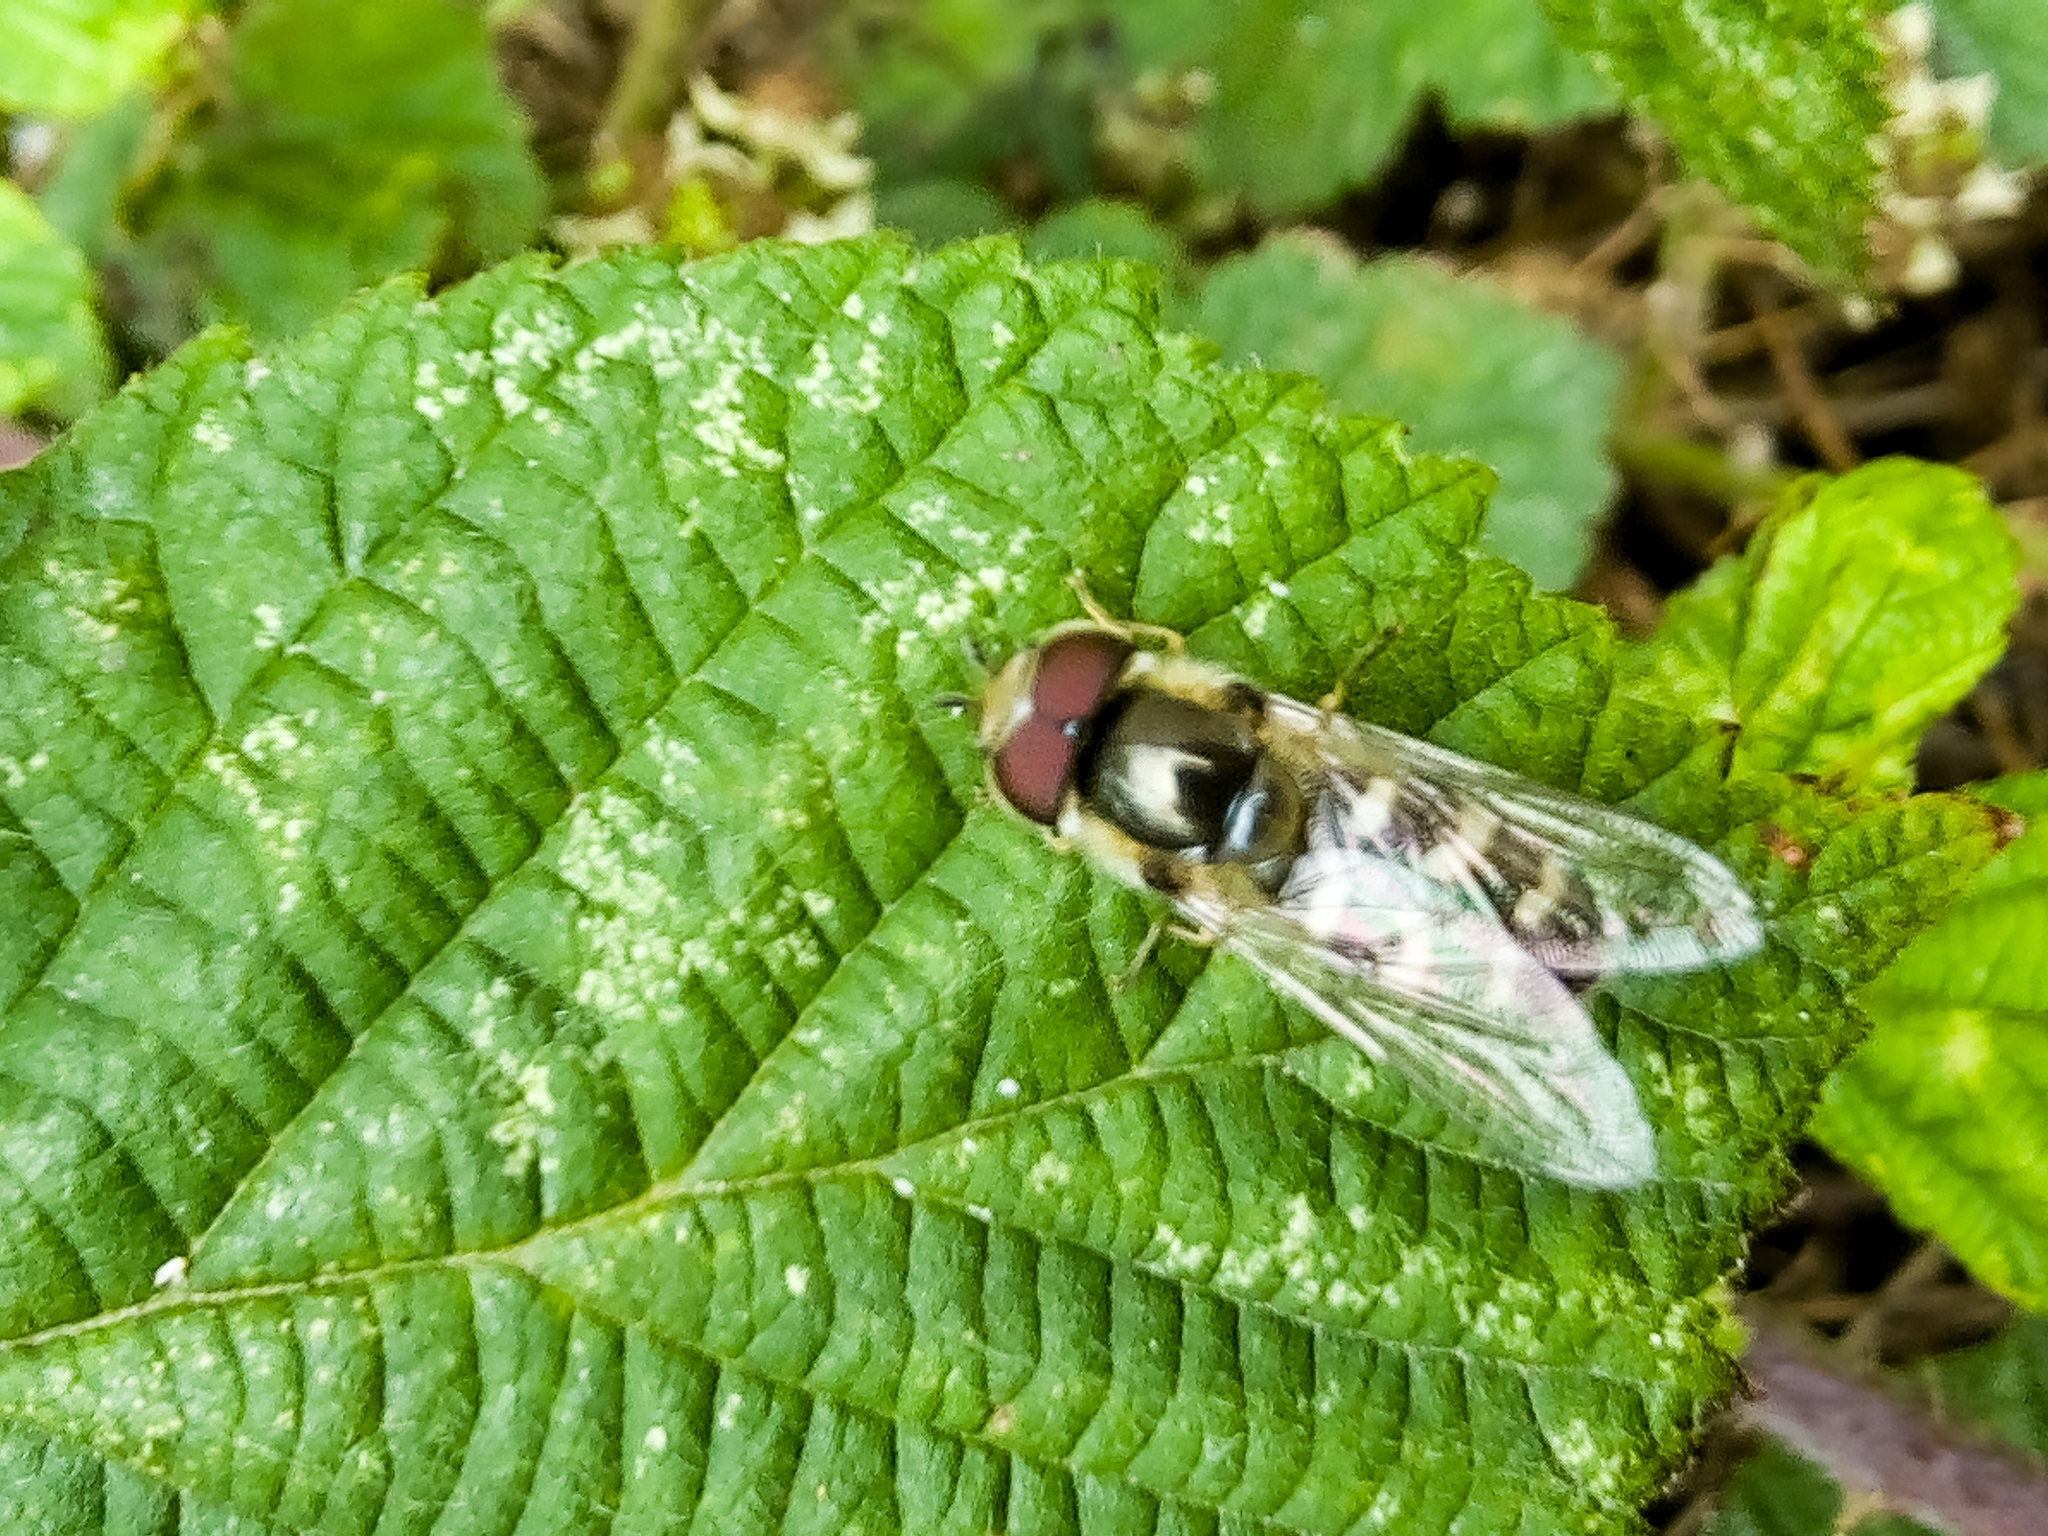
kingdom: Animalia
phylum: Arthropoda
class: Insecta
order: Diptera
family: Syrphidae
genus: Scaeva
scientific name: Scaeva pyrastri
